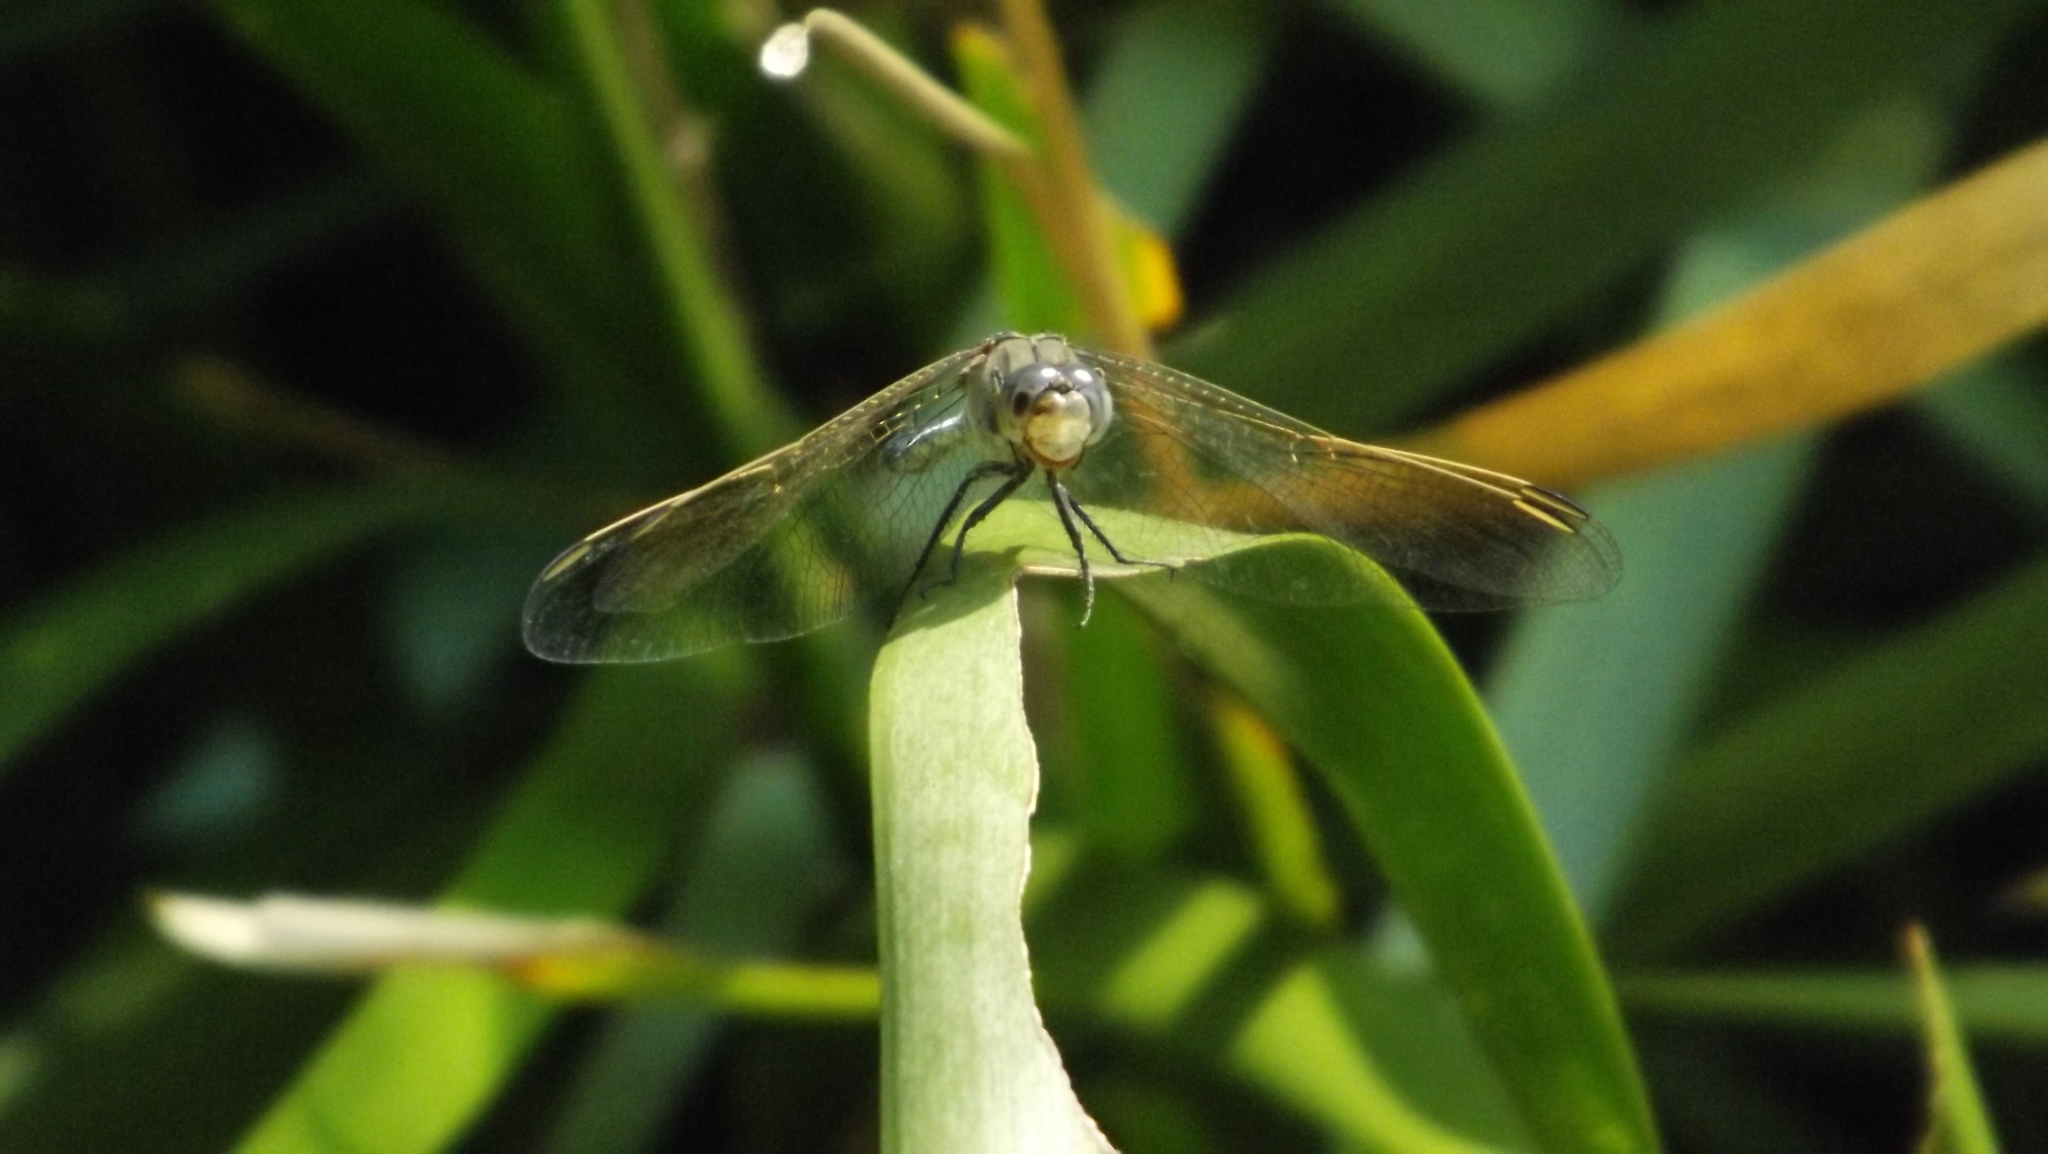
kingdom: Animalia
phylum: Arthropoda
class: Insecta
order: Odonata
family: Libellulidae
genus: Orthetrum
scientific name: Orthetrum caledonicum
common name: Blue skimmer
